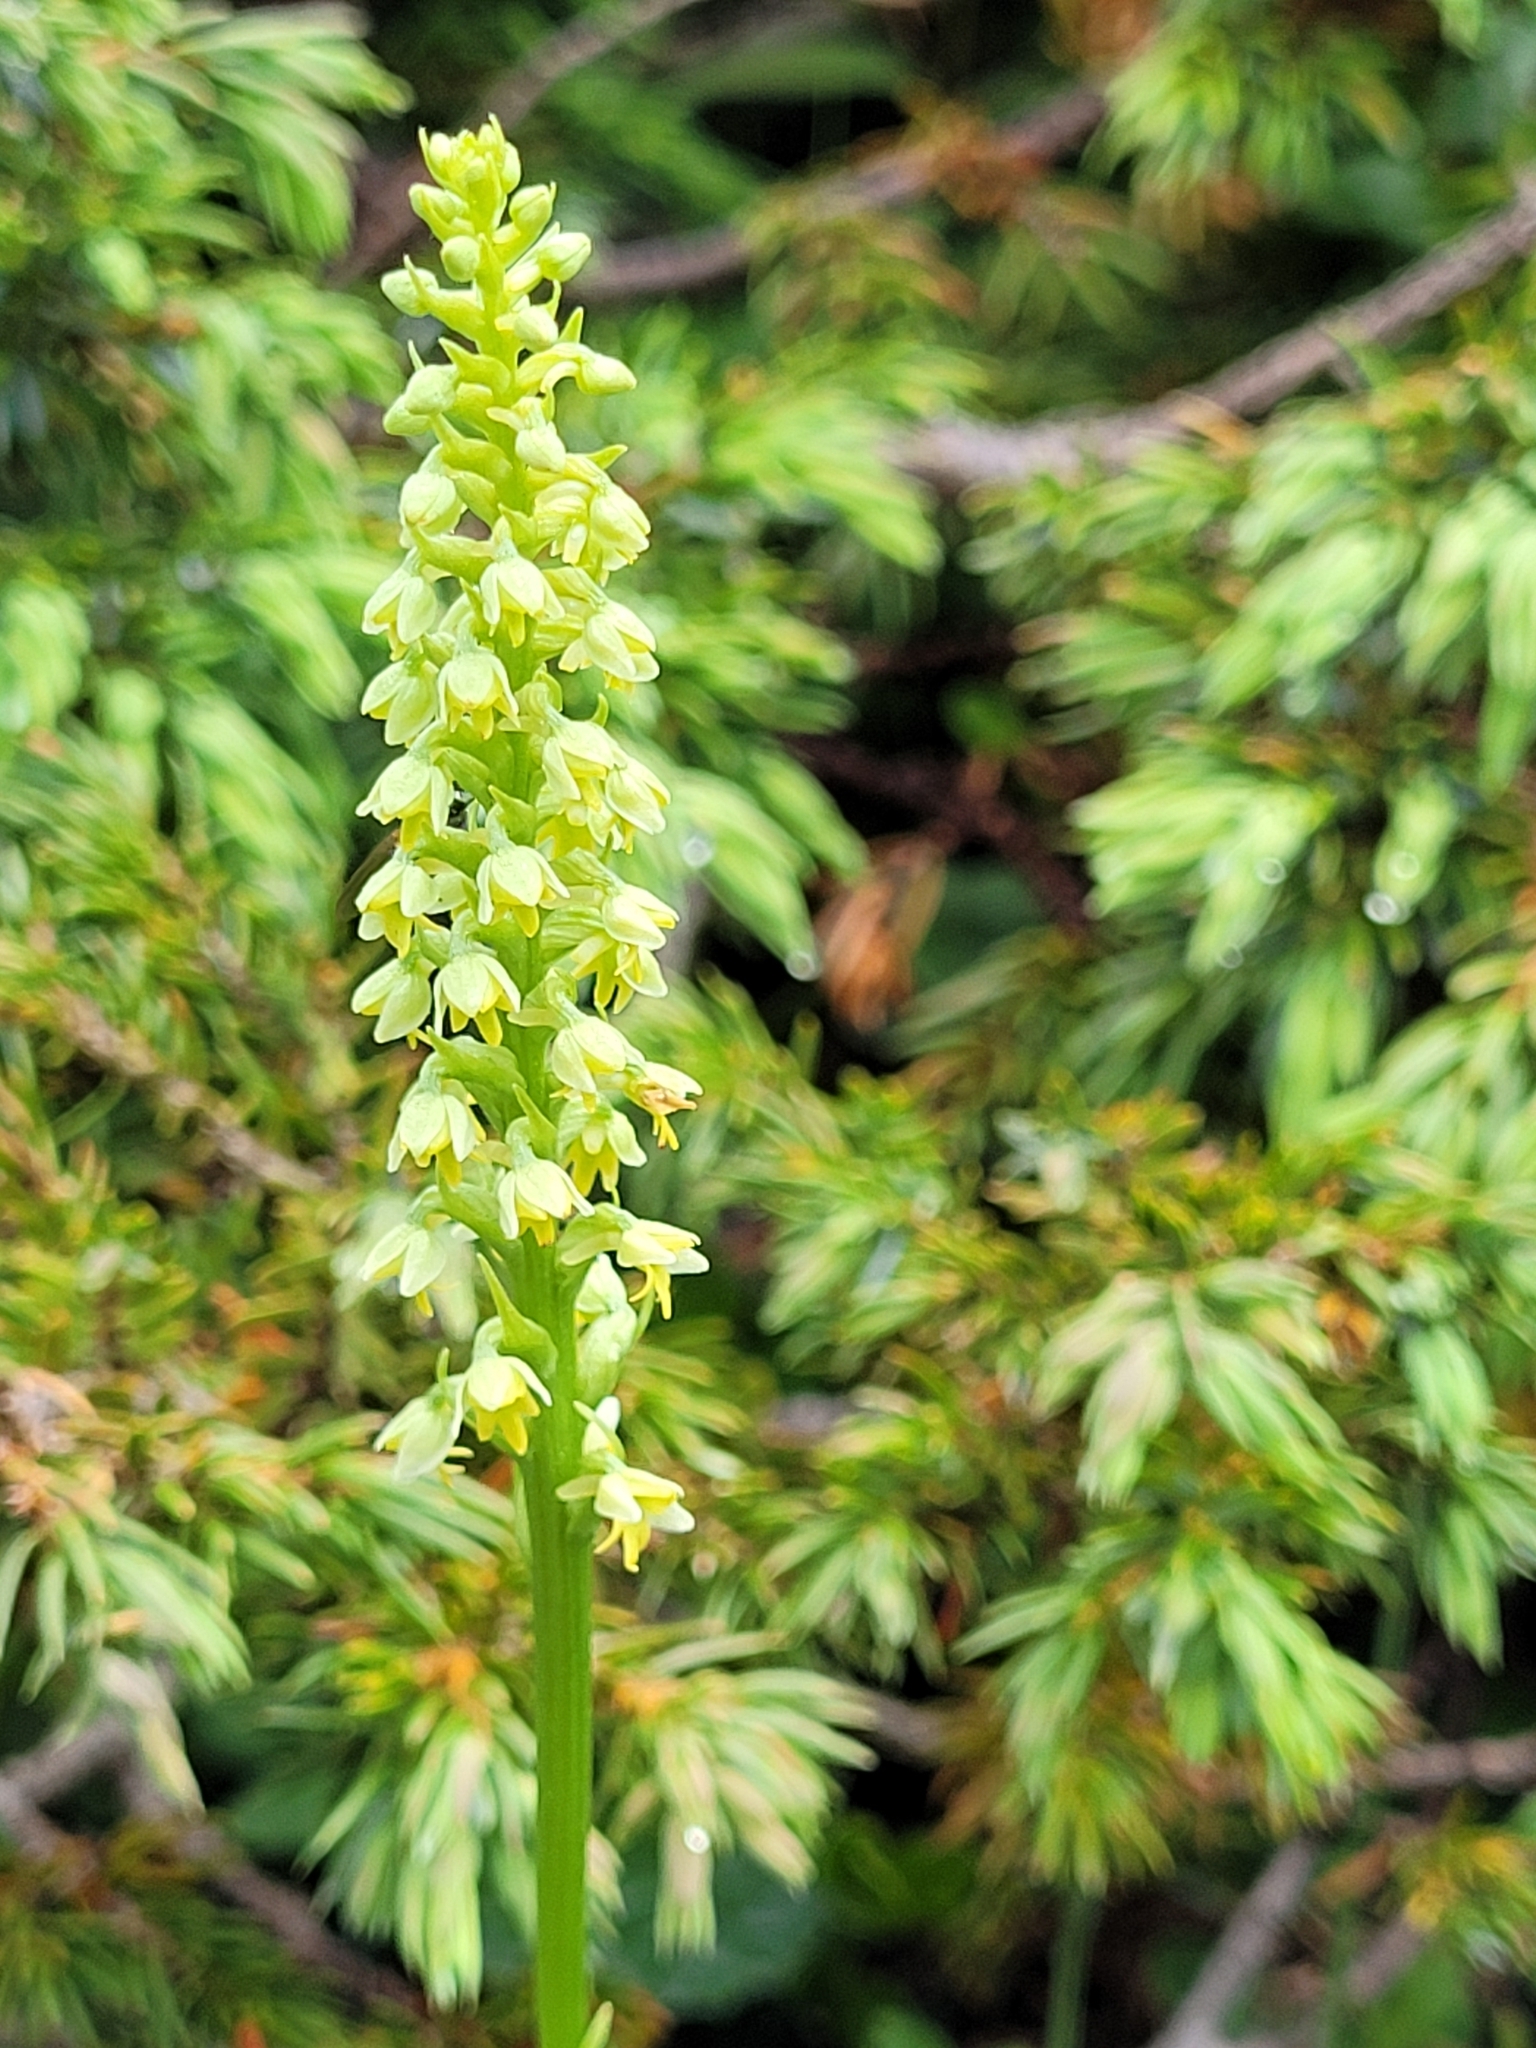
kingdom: Plantae
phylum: Tracheophyta
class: Liliopsida
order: Asparagales
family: Orchidaceae
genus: Pseudorchis
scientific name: Pseudorchis albida
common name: Small-white orchid
